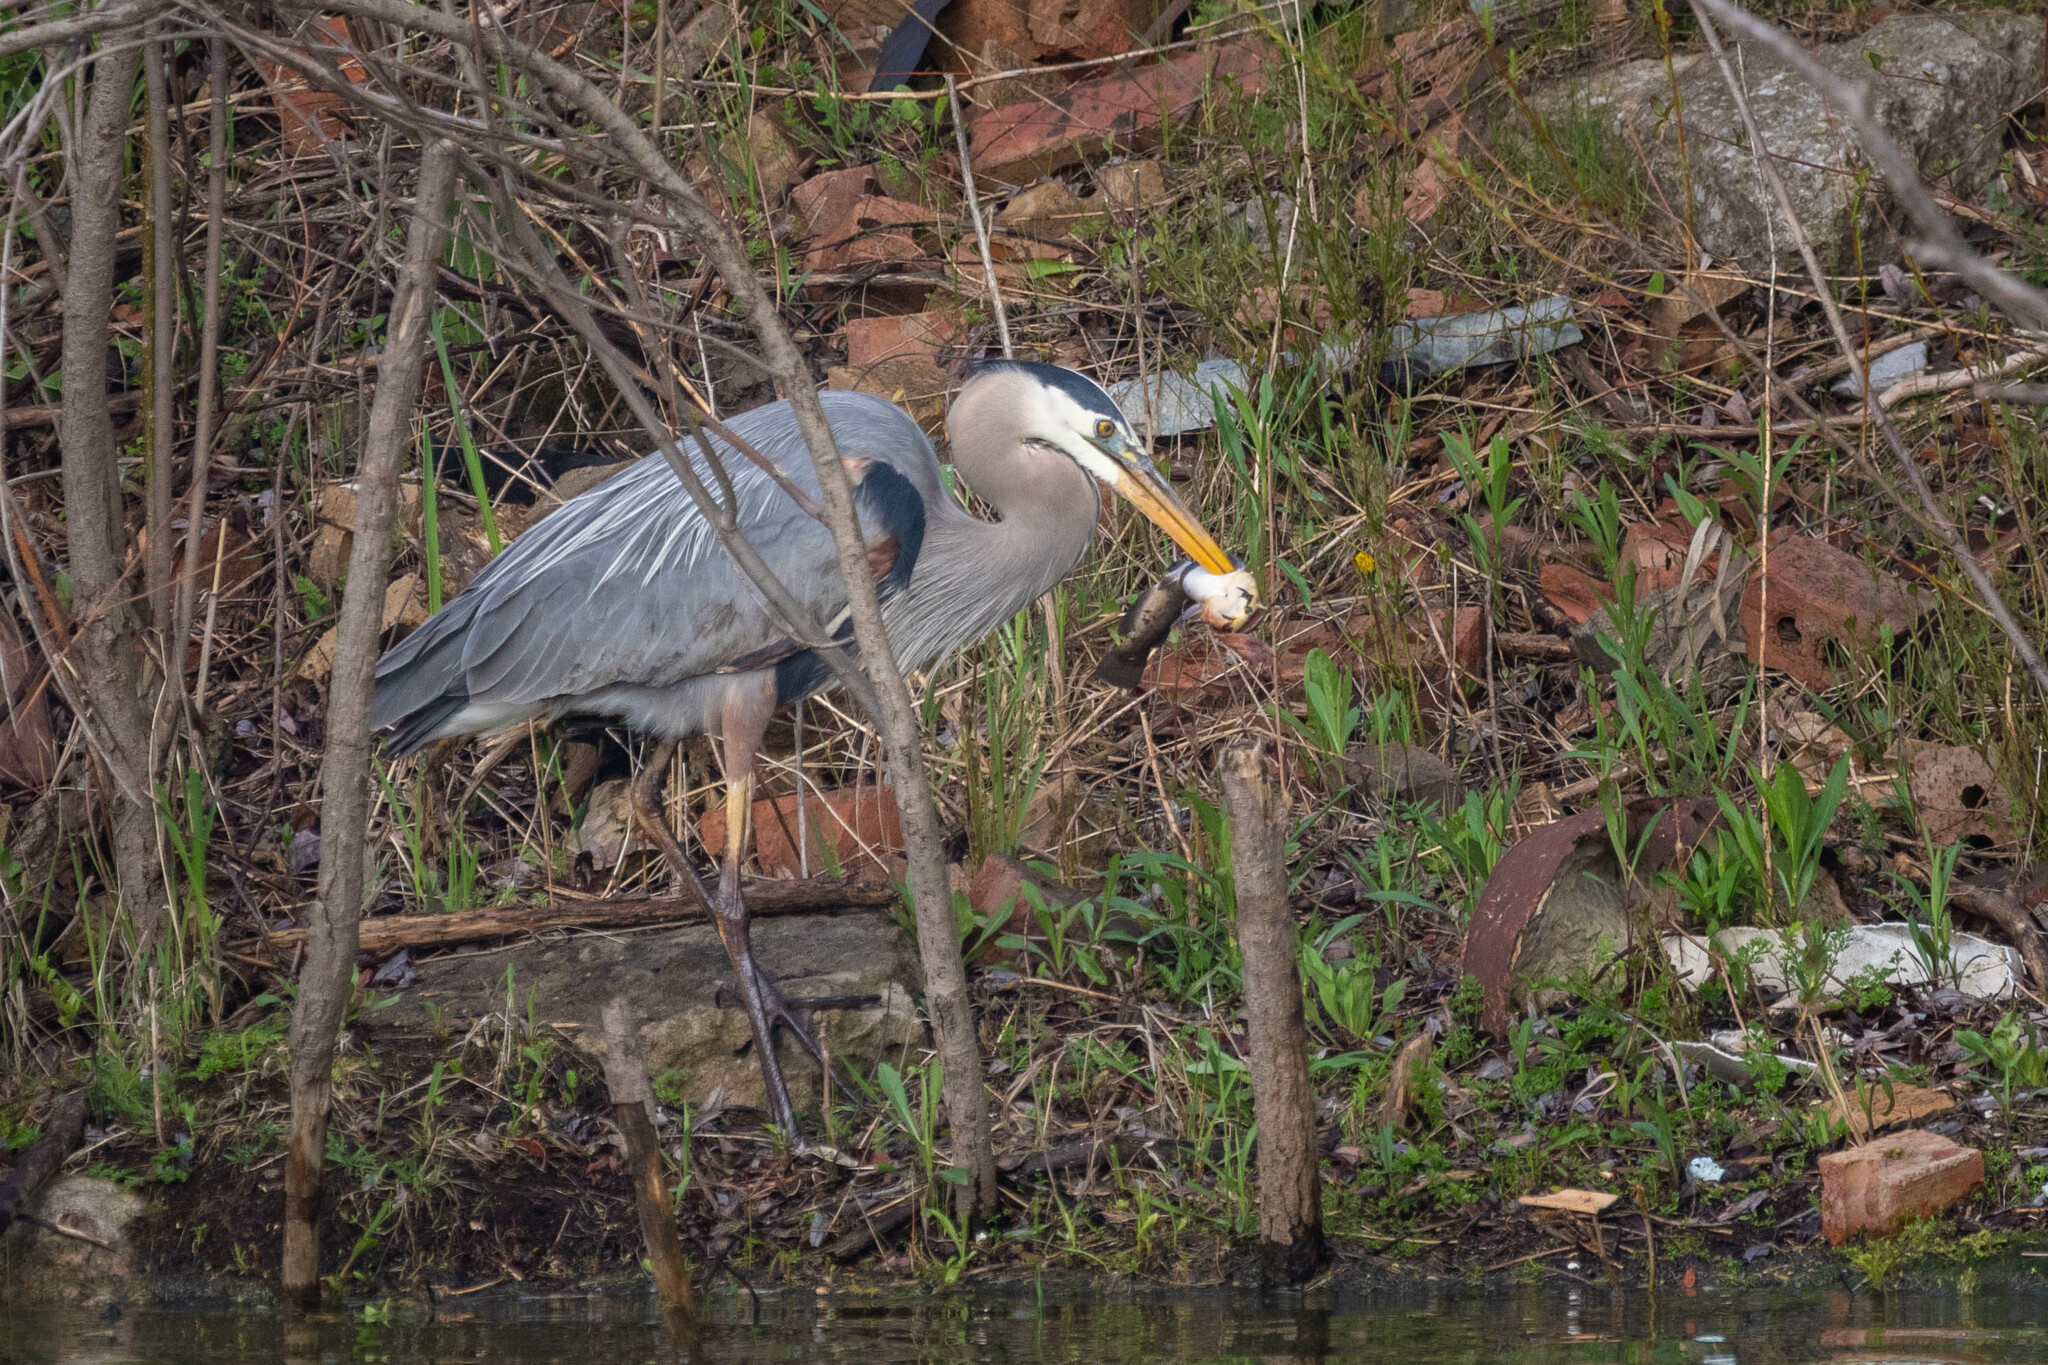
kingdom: Animalia
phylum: Chordata
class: Aves
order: Pelecaniformes
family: Ardeidae
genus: Ardea
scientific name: Ardea herodias
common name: Great blue heron
